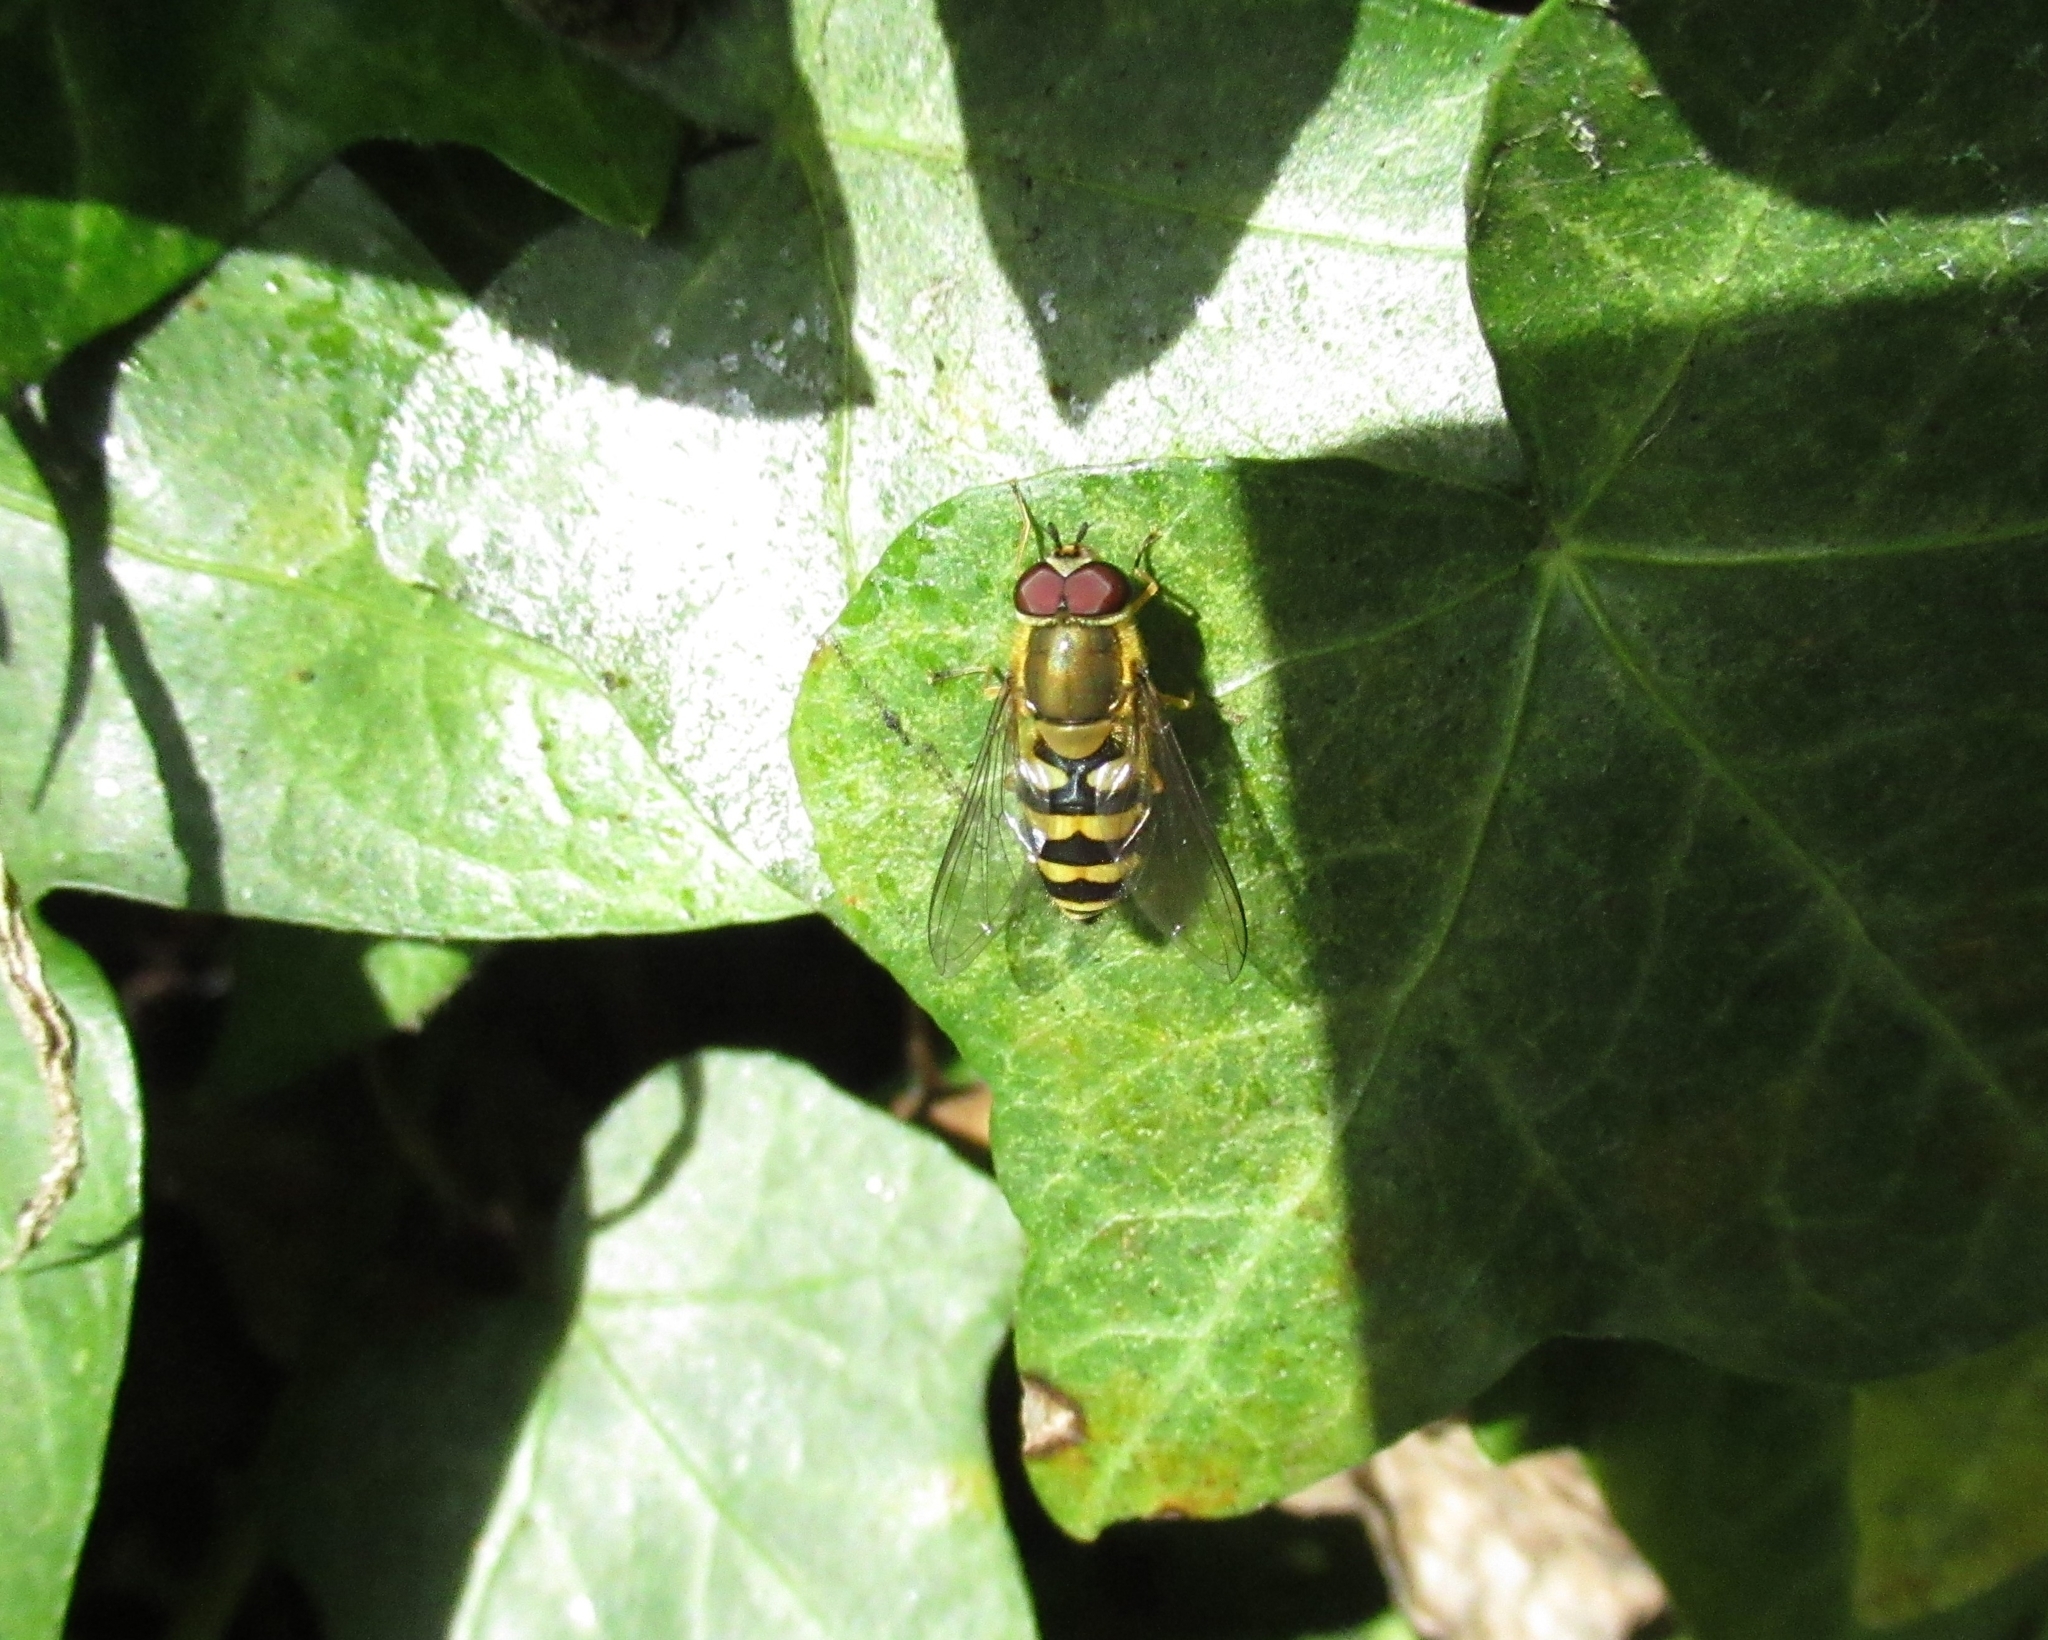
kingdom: Animalia
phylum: Arthropoda
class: Insecta
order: Diptera
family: Syrphidae
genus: Syrphus
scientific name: Syrphus
